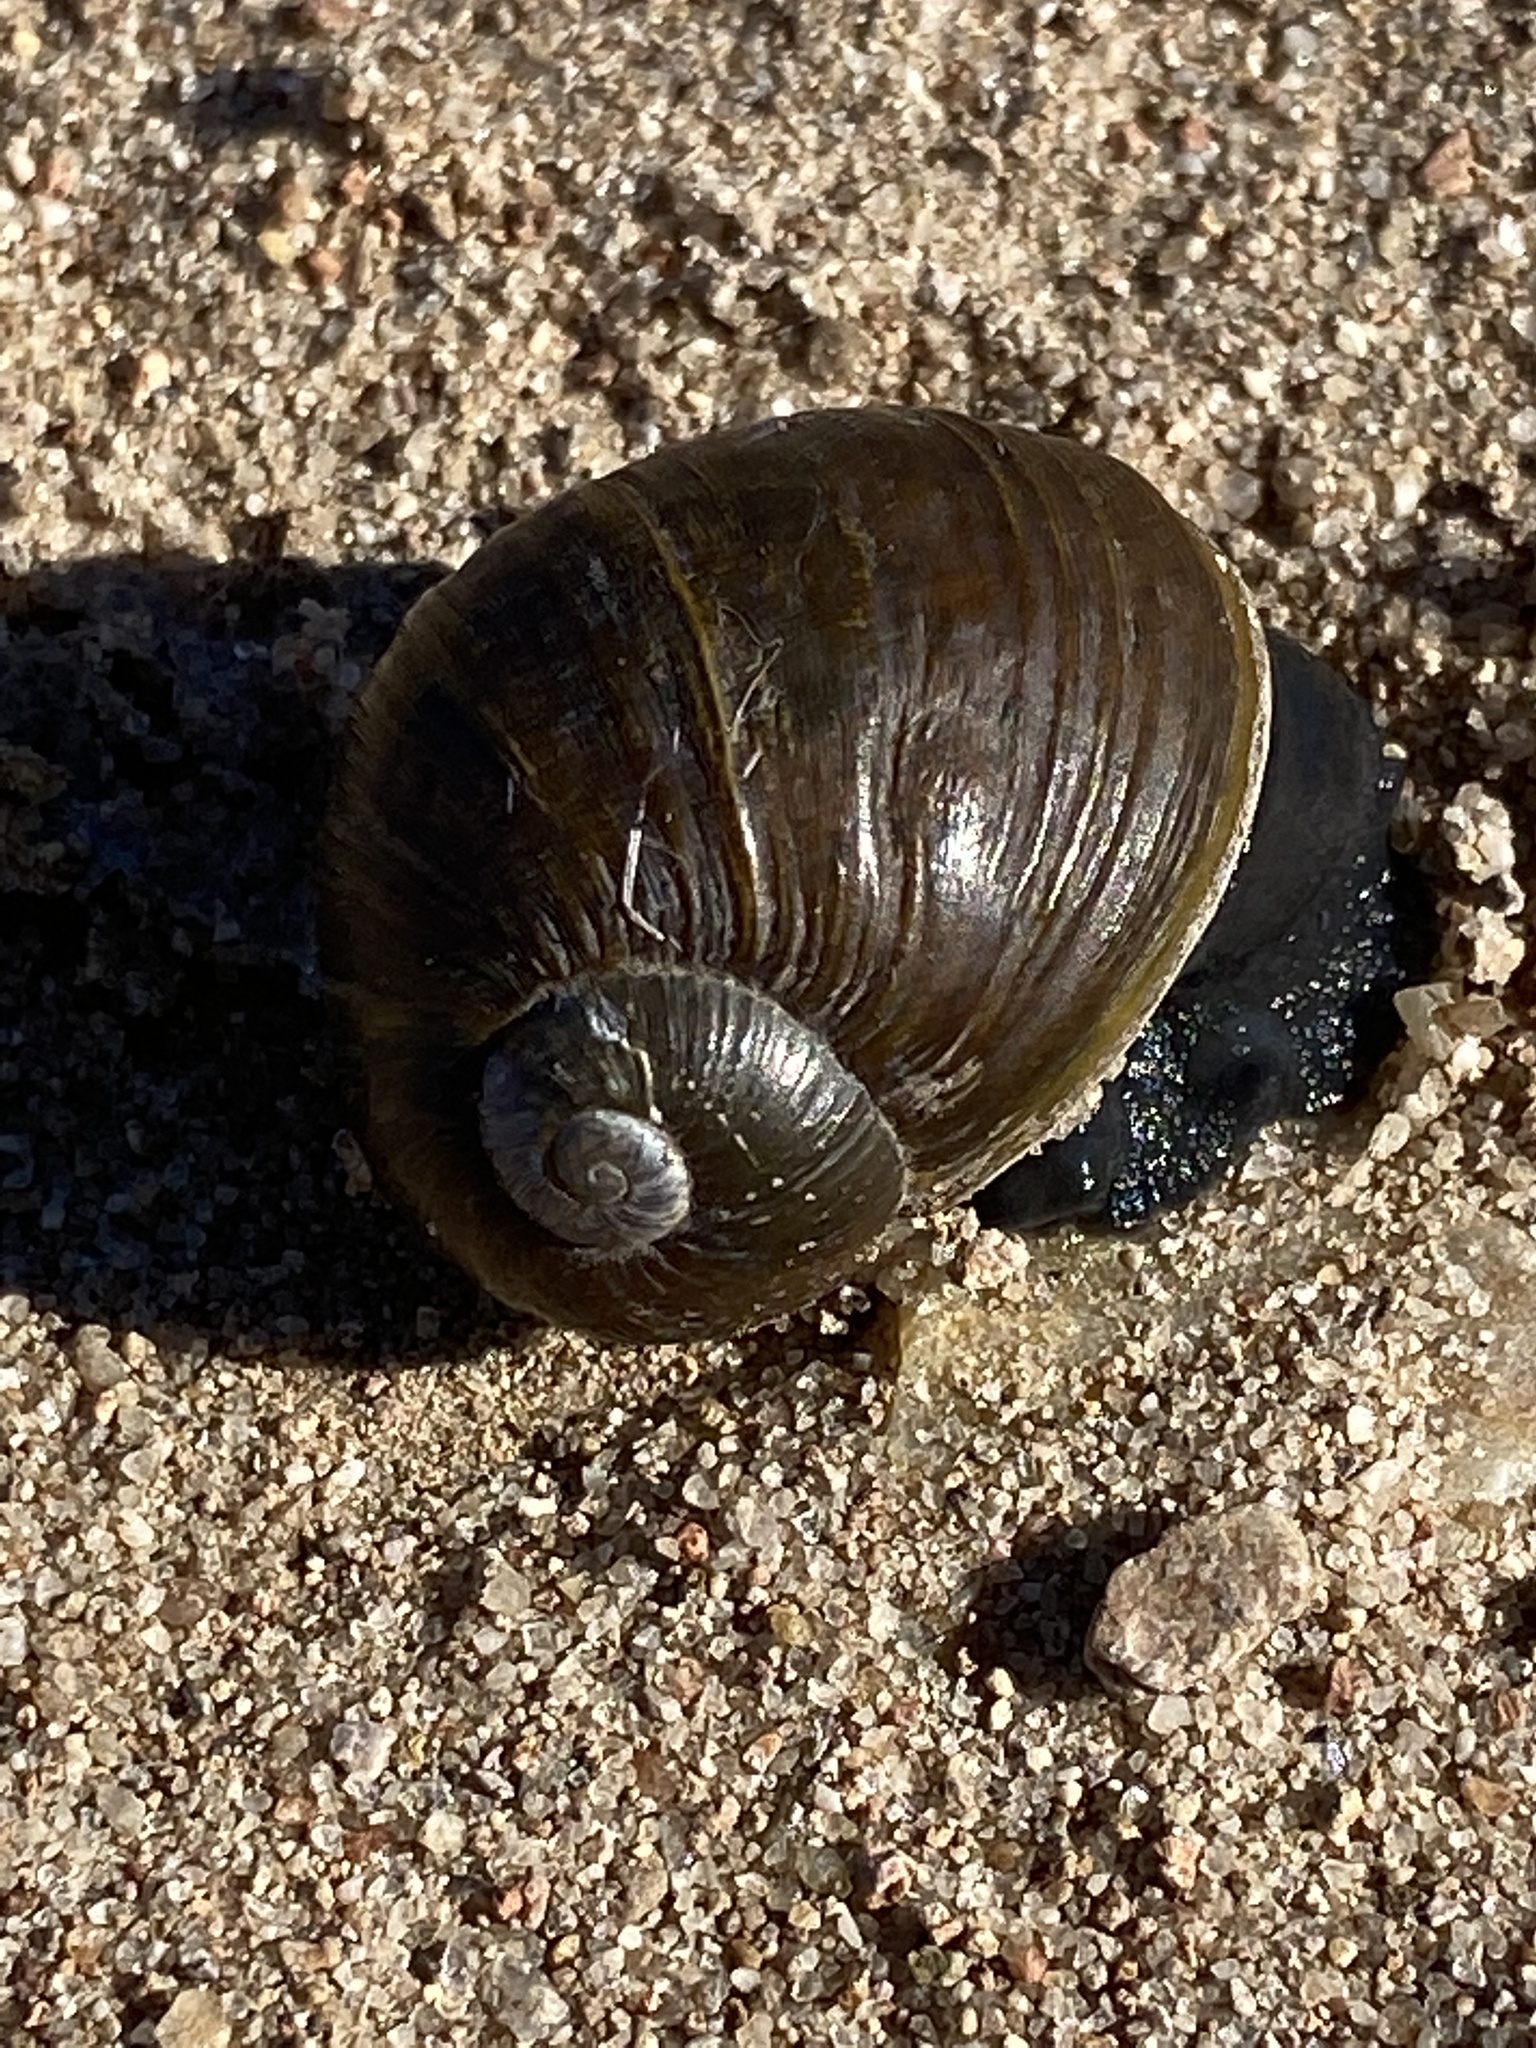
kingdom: Animalia
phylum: Mollusca
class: Gastropoda
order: Stylommatophora
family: Helicidae
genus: Cantareus
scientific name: Cantareus apertus
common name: Green gardensnail
